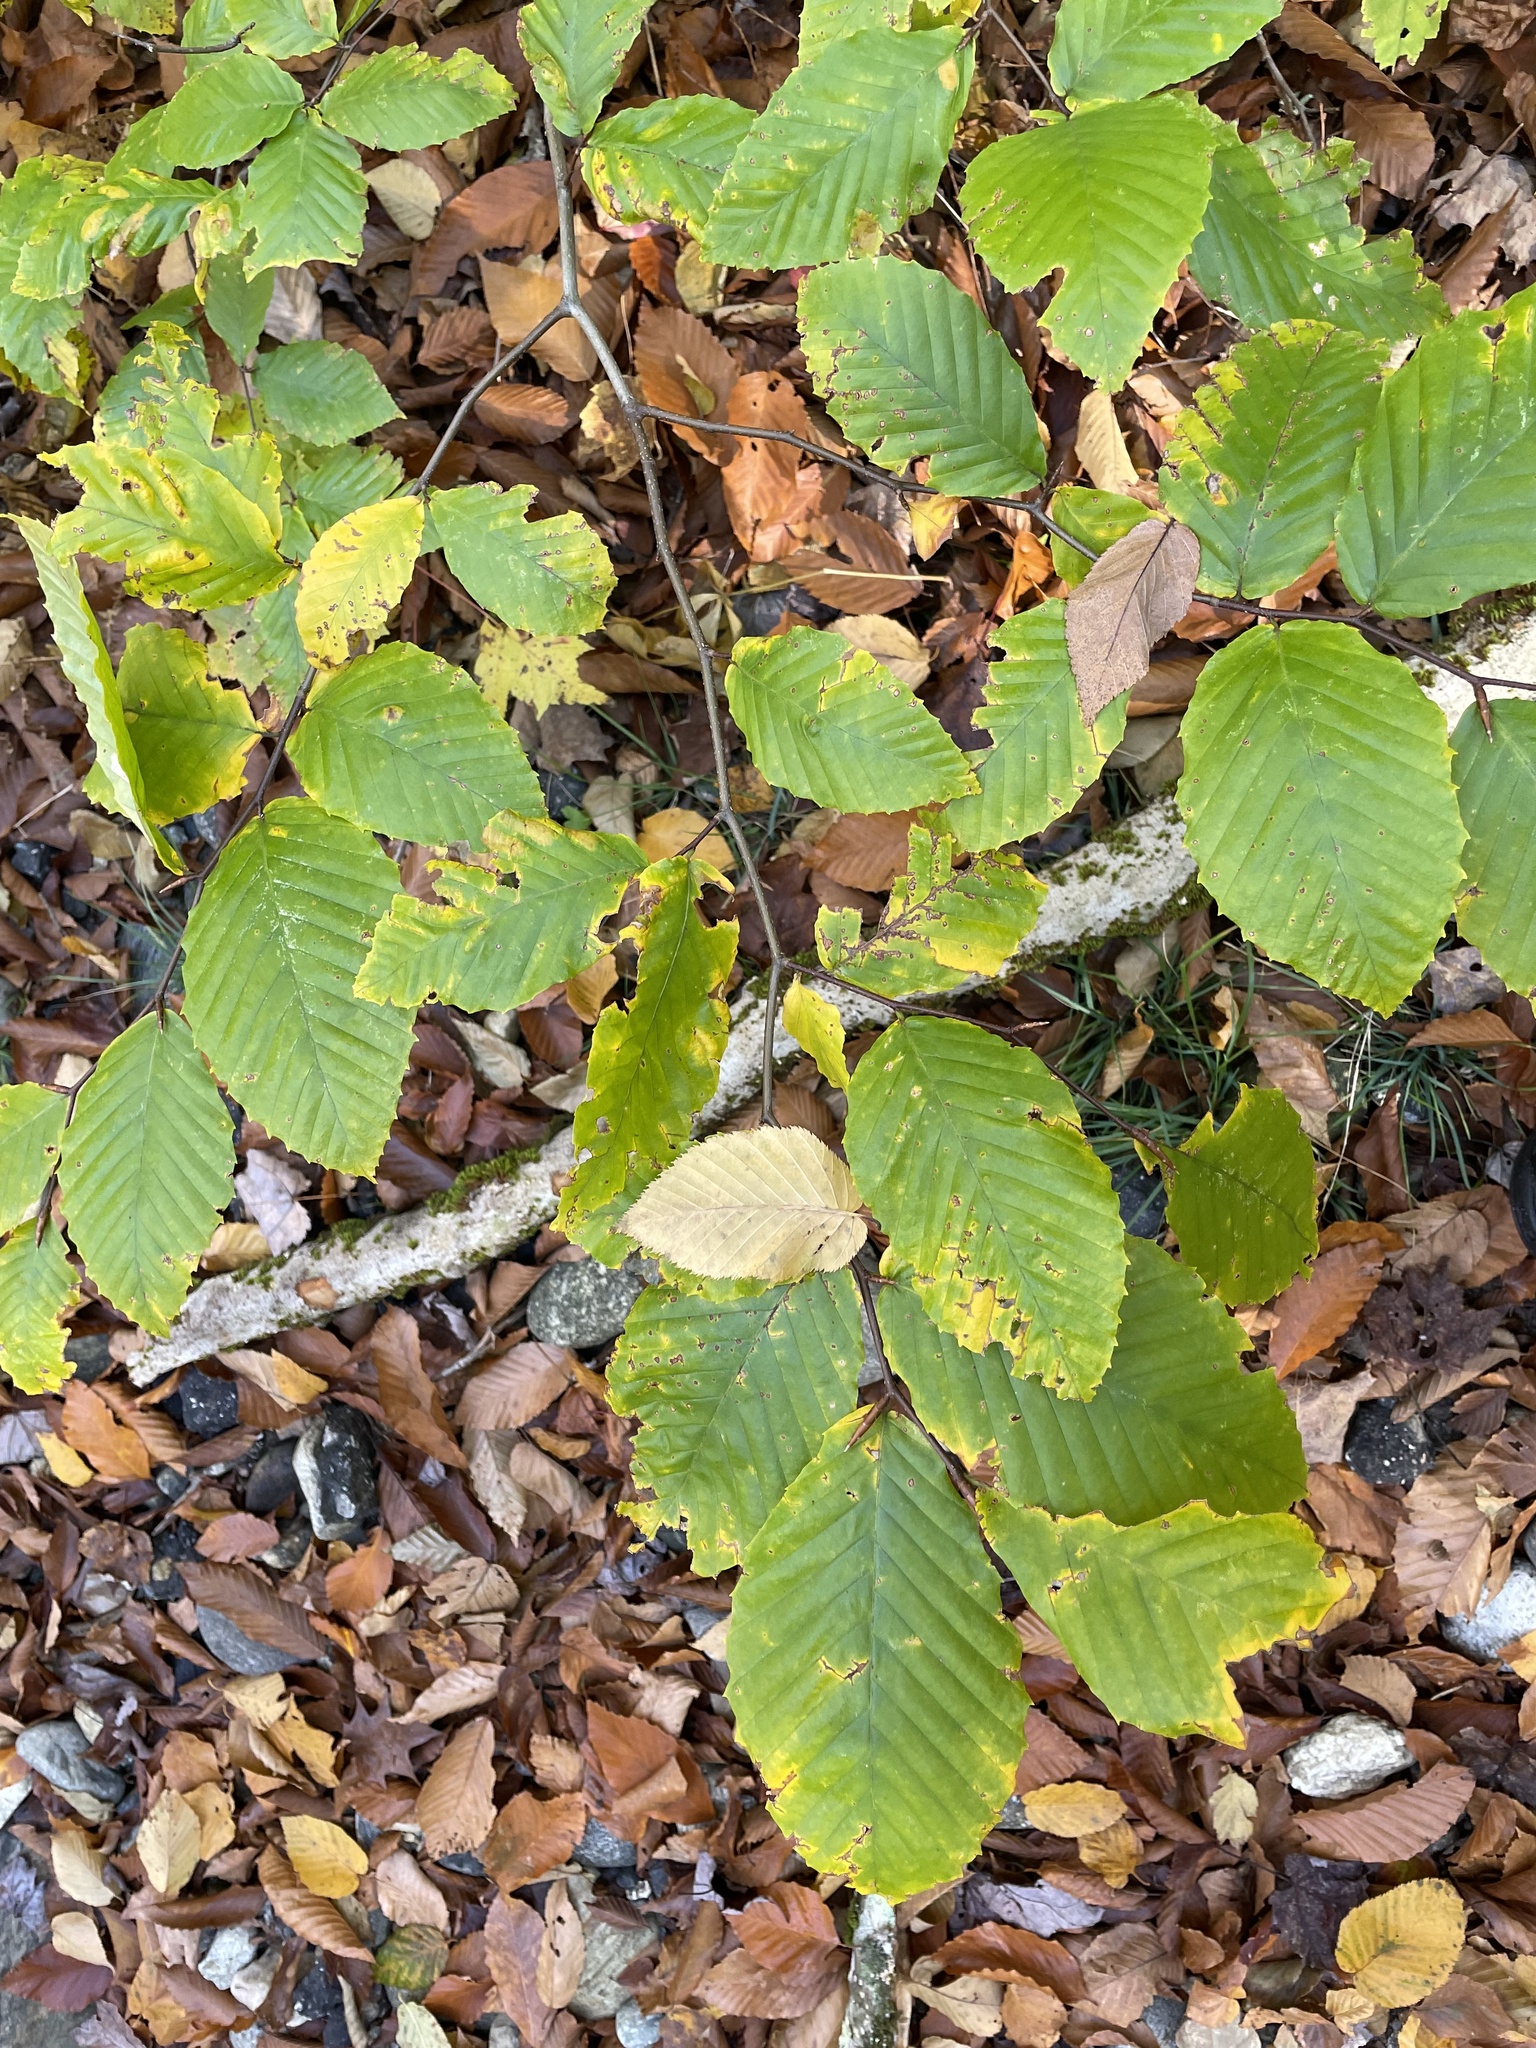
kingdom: Plantae
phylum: Tracheophyta
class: Magnoliopsida
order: Fagales
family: Fagaceae
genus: Fagus
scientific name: Fagus grandifolia
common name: American beech
